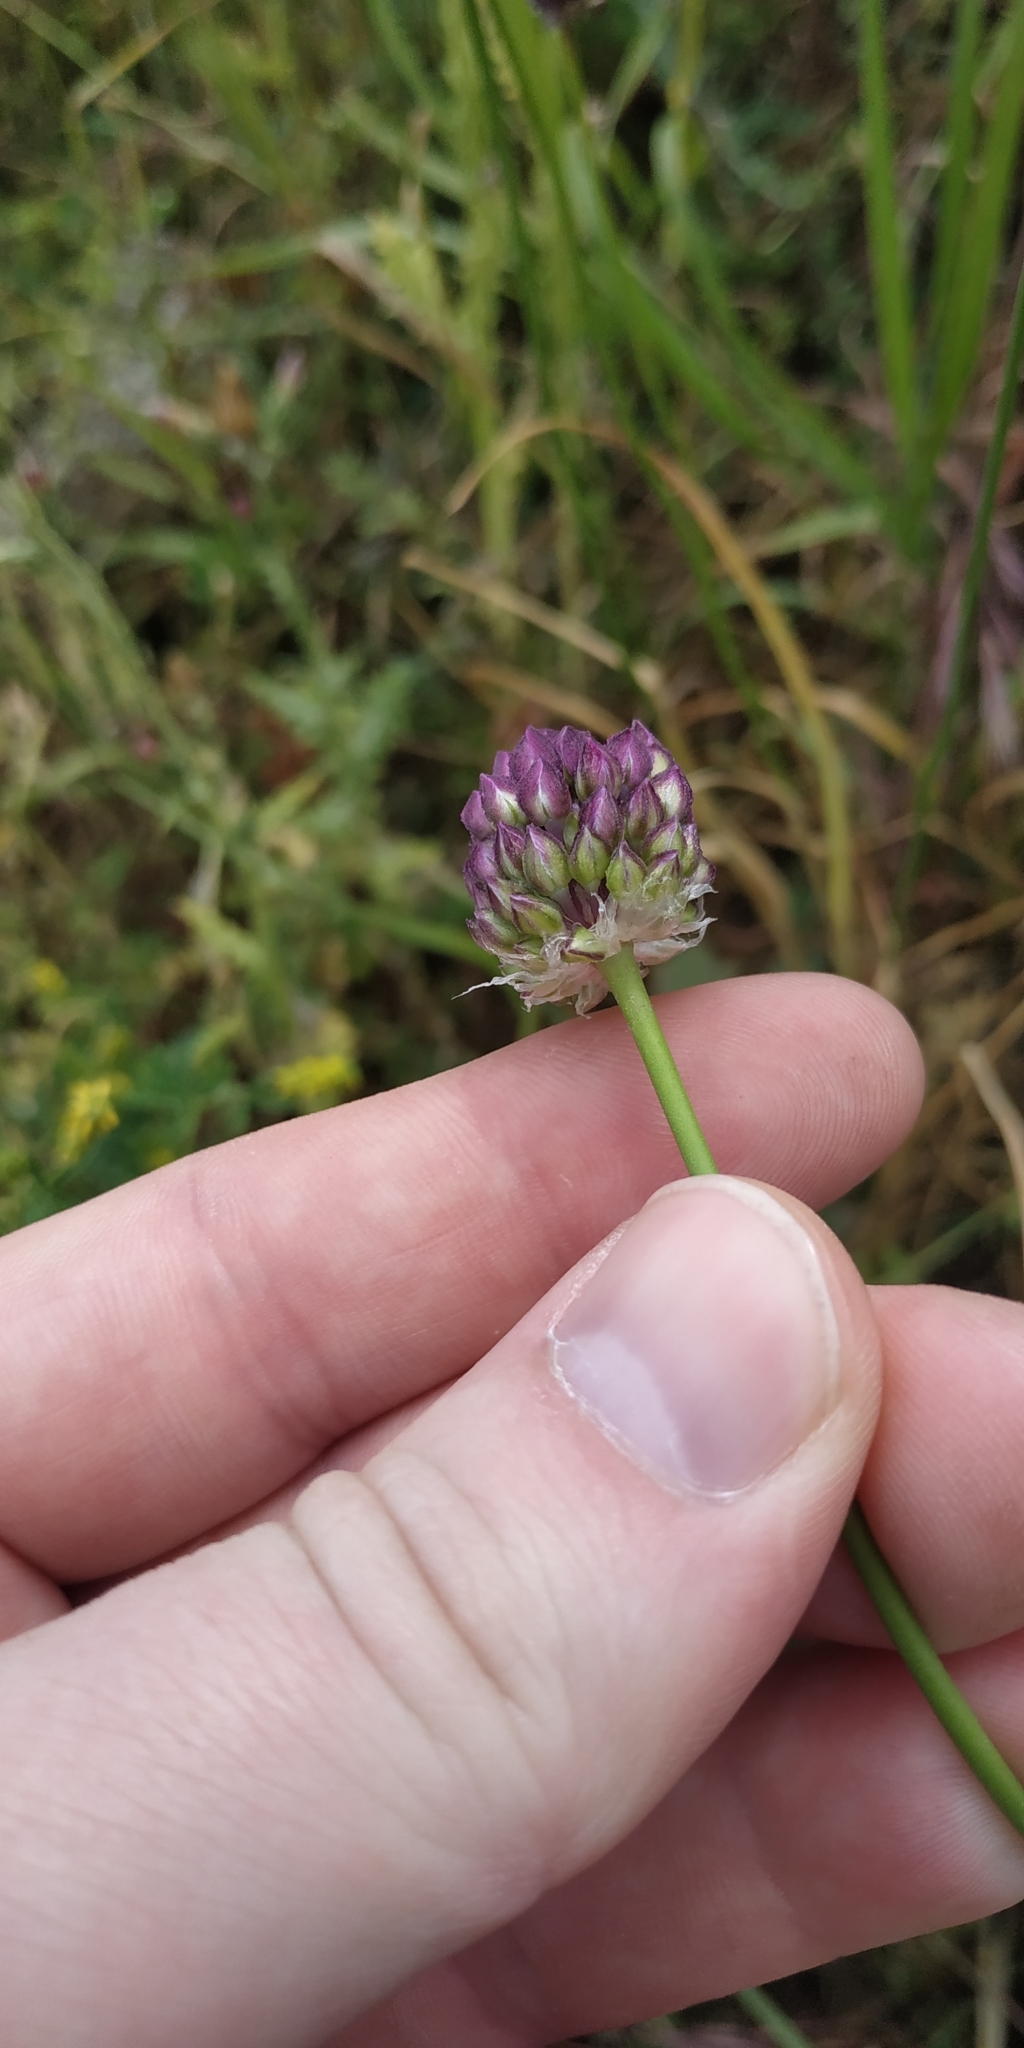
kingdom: Plantae
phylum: Tracheophyta
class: Liliopsida
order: Asparagales
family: Amaryllidaceae
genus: Allium
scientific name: Allium rotundum
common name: Sand leek
